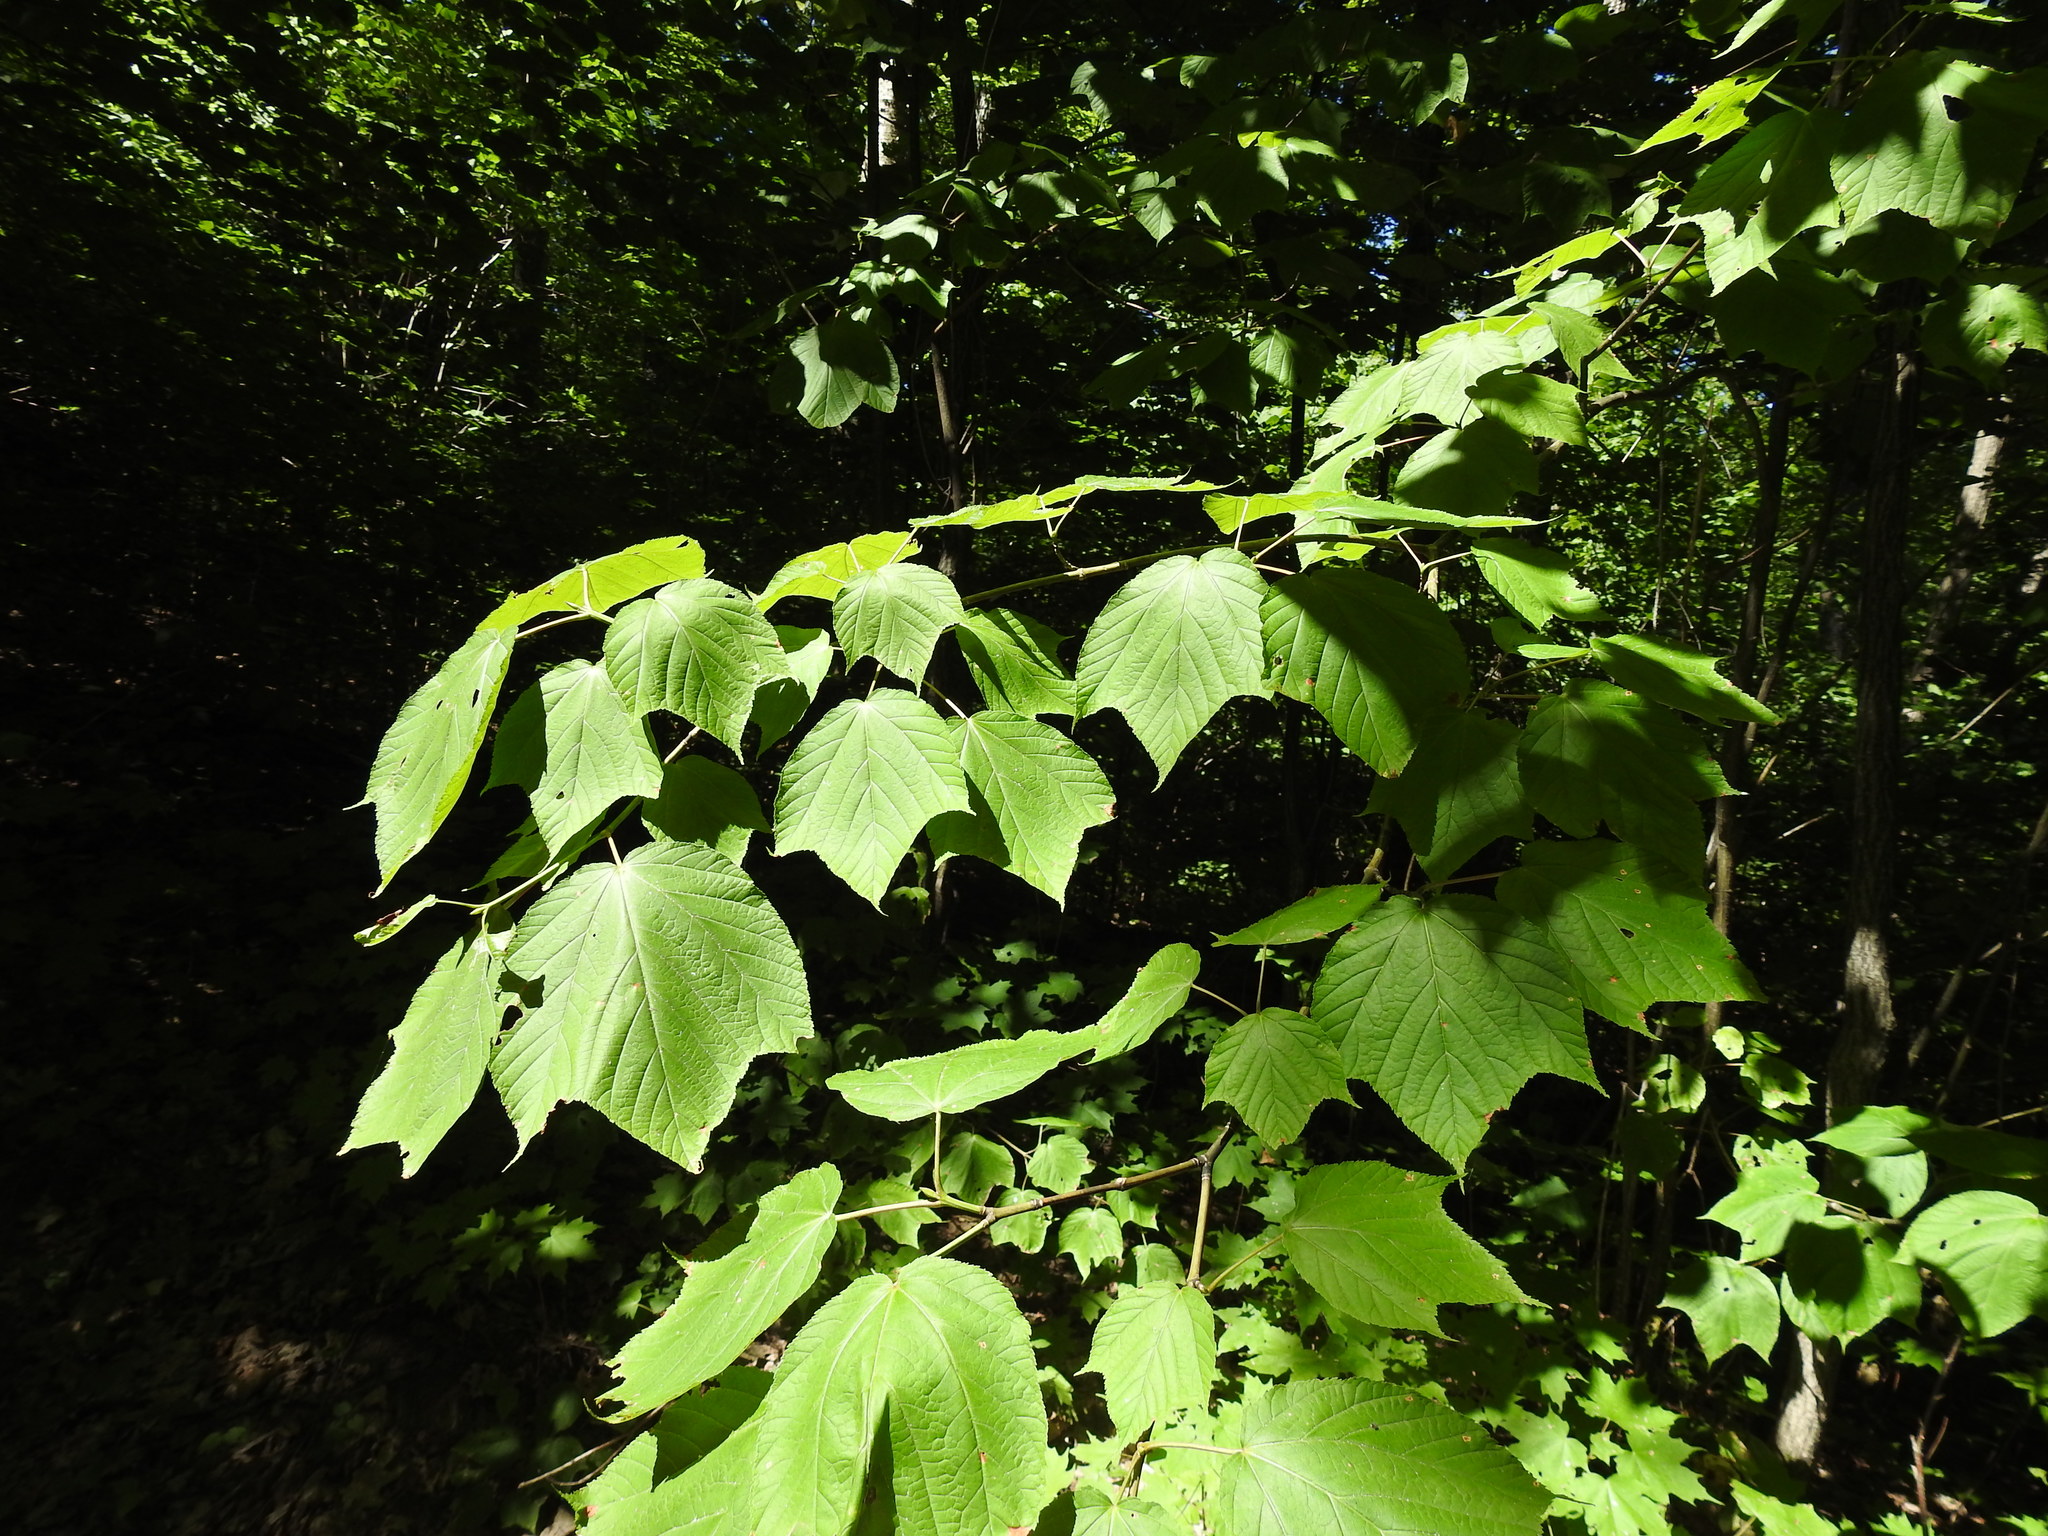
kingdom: Plantae
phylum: Tracheophyta
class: Magnoliopsida
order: Sapindales
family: Sapindaceae
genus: Acer
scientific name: Acer pensylvanicum
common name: Moosewood
